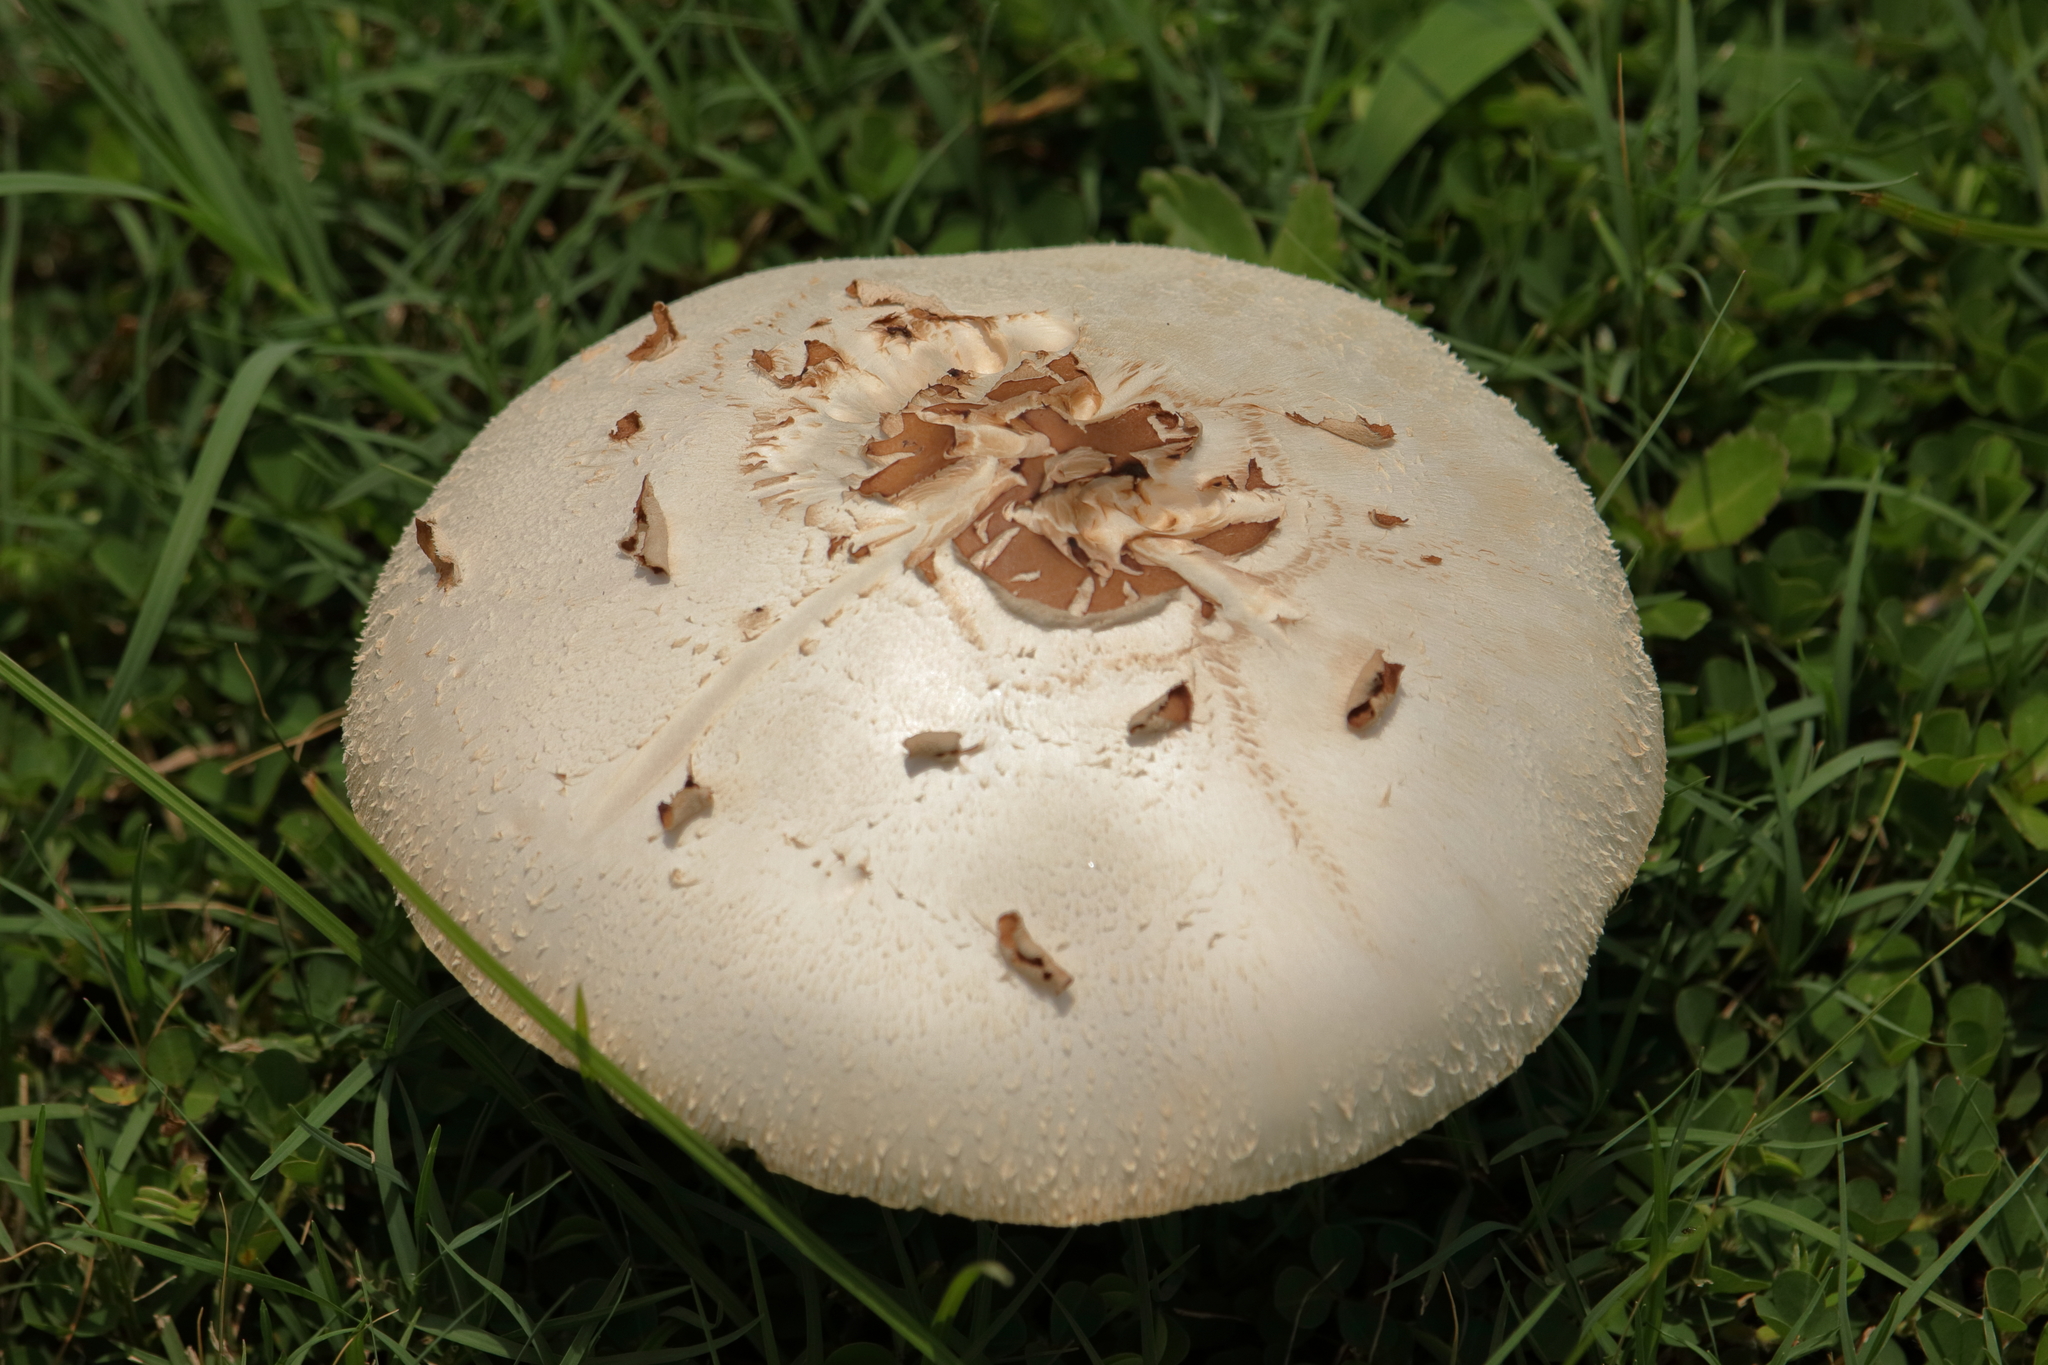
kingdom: Fungi
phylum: Basidiomycota
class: Agaricomycetes
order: Agaricales
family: Agaricaceae
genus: Chlorophyllum
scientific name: Chlorophyllum molybdites
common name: False parasol
